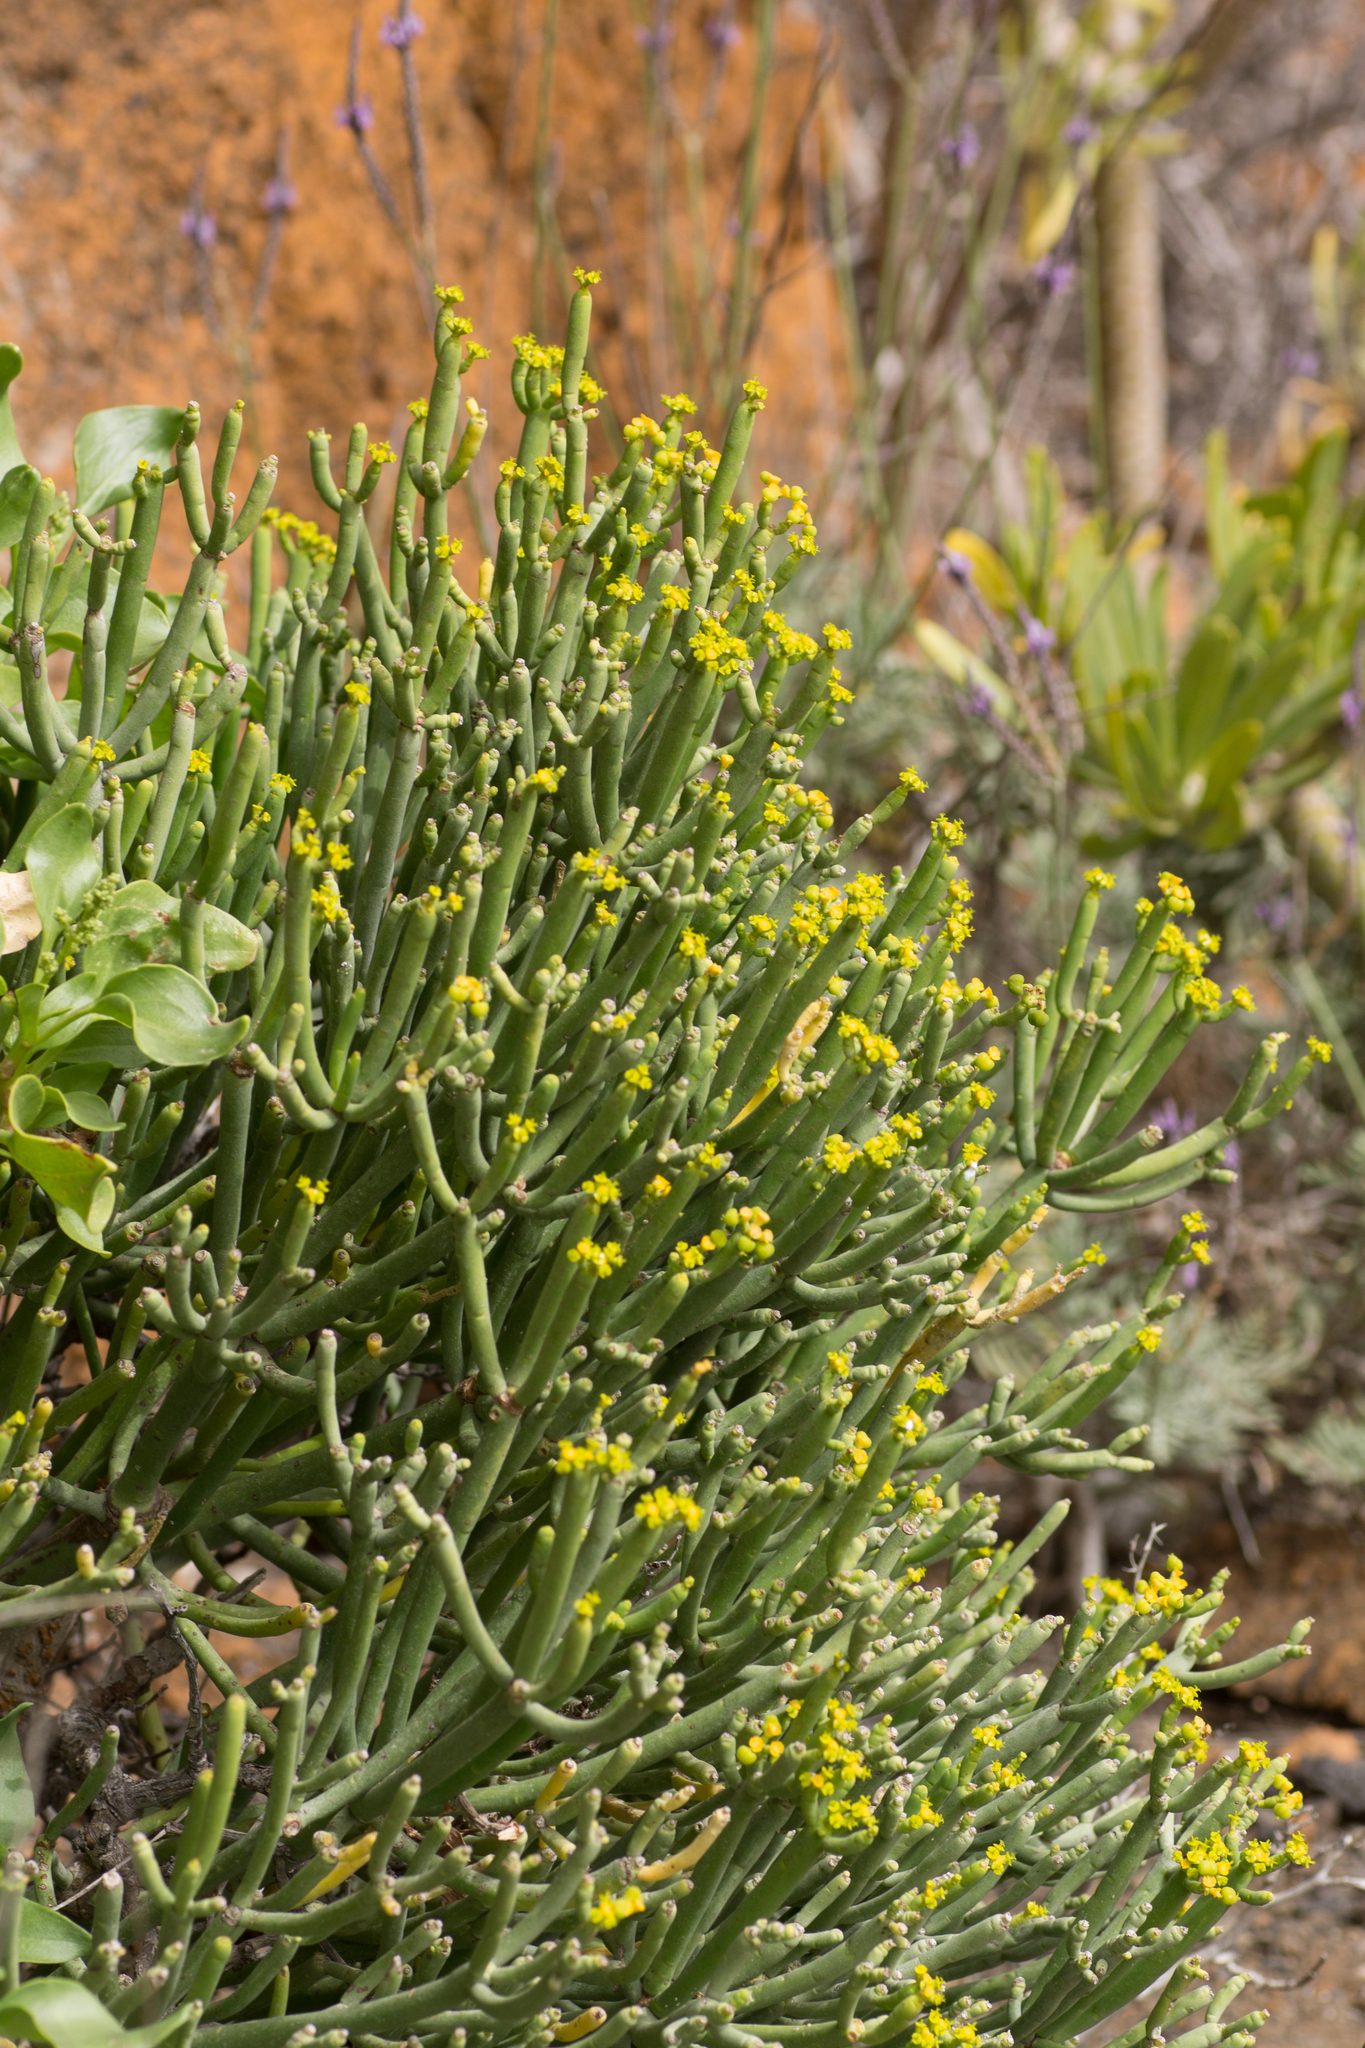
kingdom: Plantae
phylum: Tracheophyta
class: Magnoliopsida
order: Malpighiales
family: Euphorbiaceae
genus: Euphorbia
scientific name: Euphorbia aphylla
